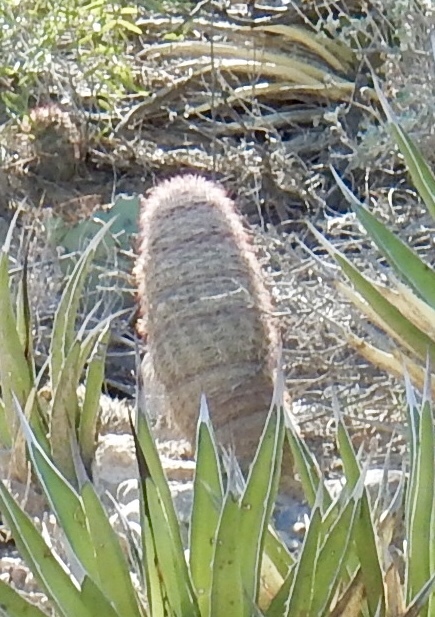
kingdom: Plantae
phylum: Tracheophyta
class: Magnoliopsida
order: Caryophyllales
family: Cactaceae
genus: Echinocereus
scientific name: Echinocereus dasyacanthus
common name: Spiny hedgehog cactus
